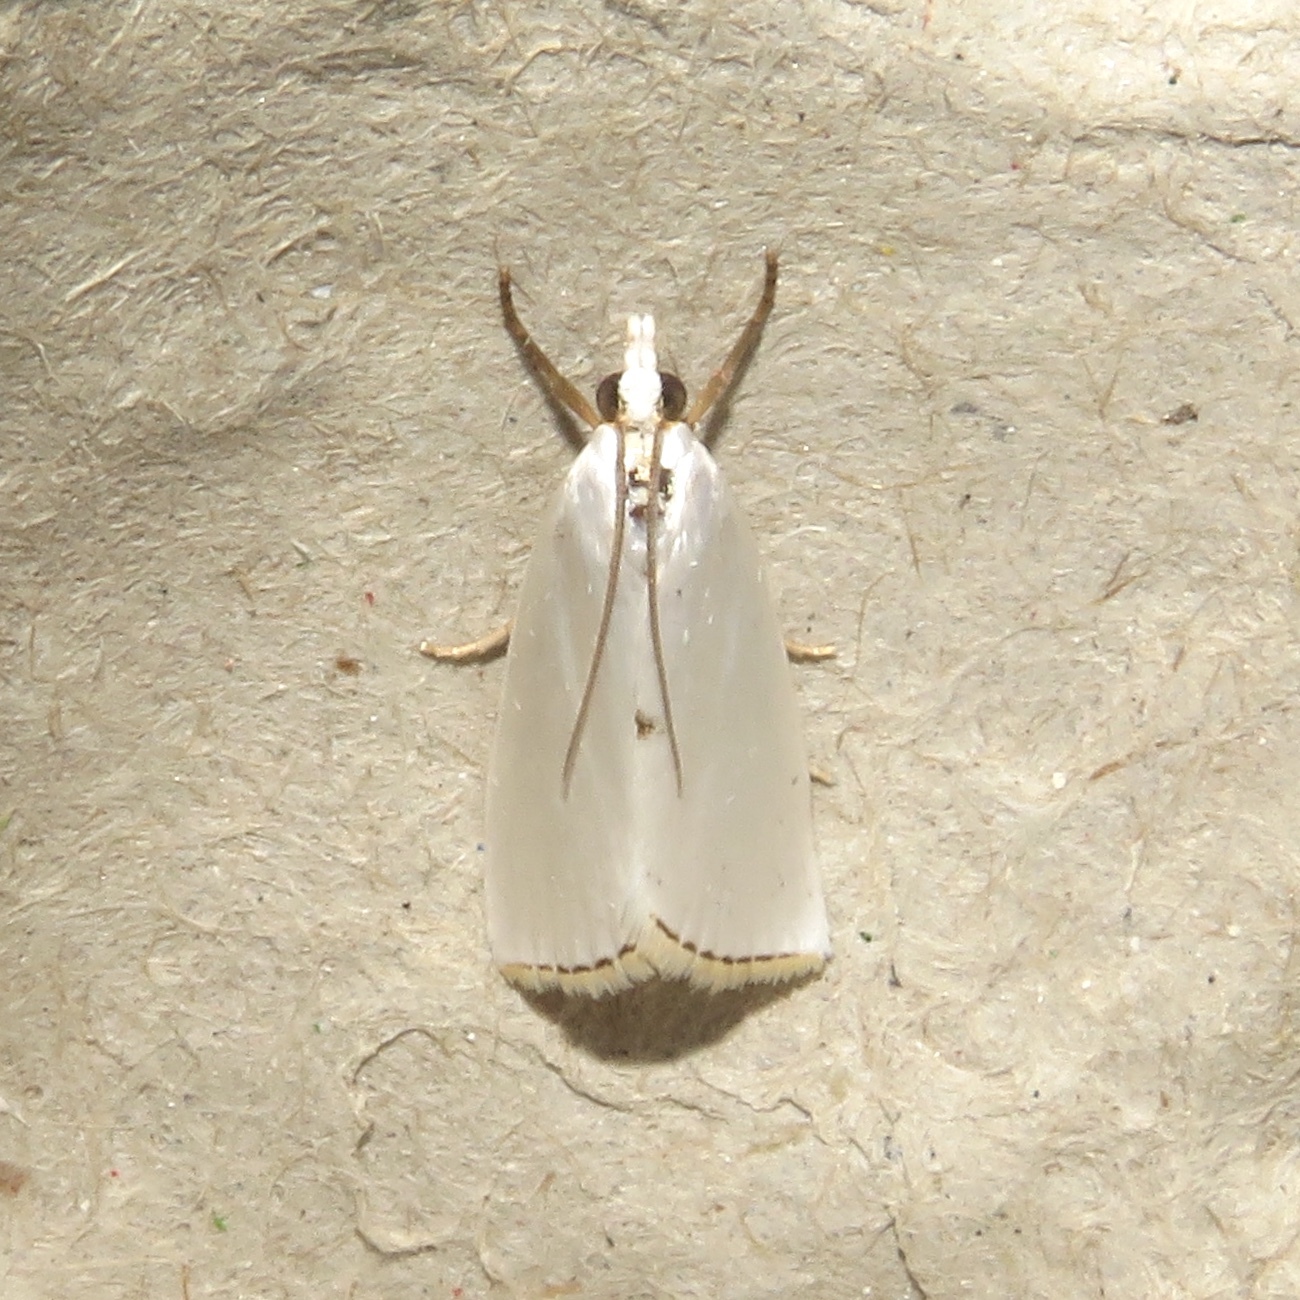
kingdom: Animalia
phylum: Arthropoda
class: Insecta
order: Lepidoptera
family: Crambidae
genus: Argyria
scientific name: Argyria nivalis
